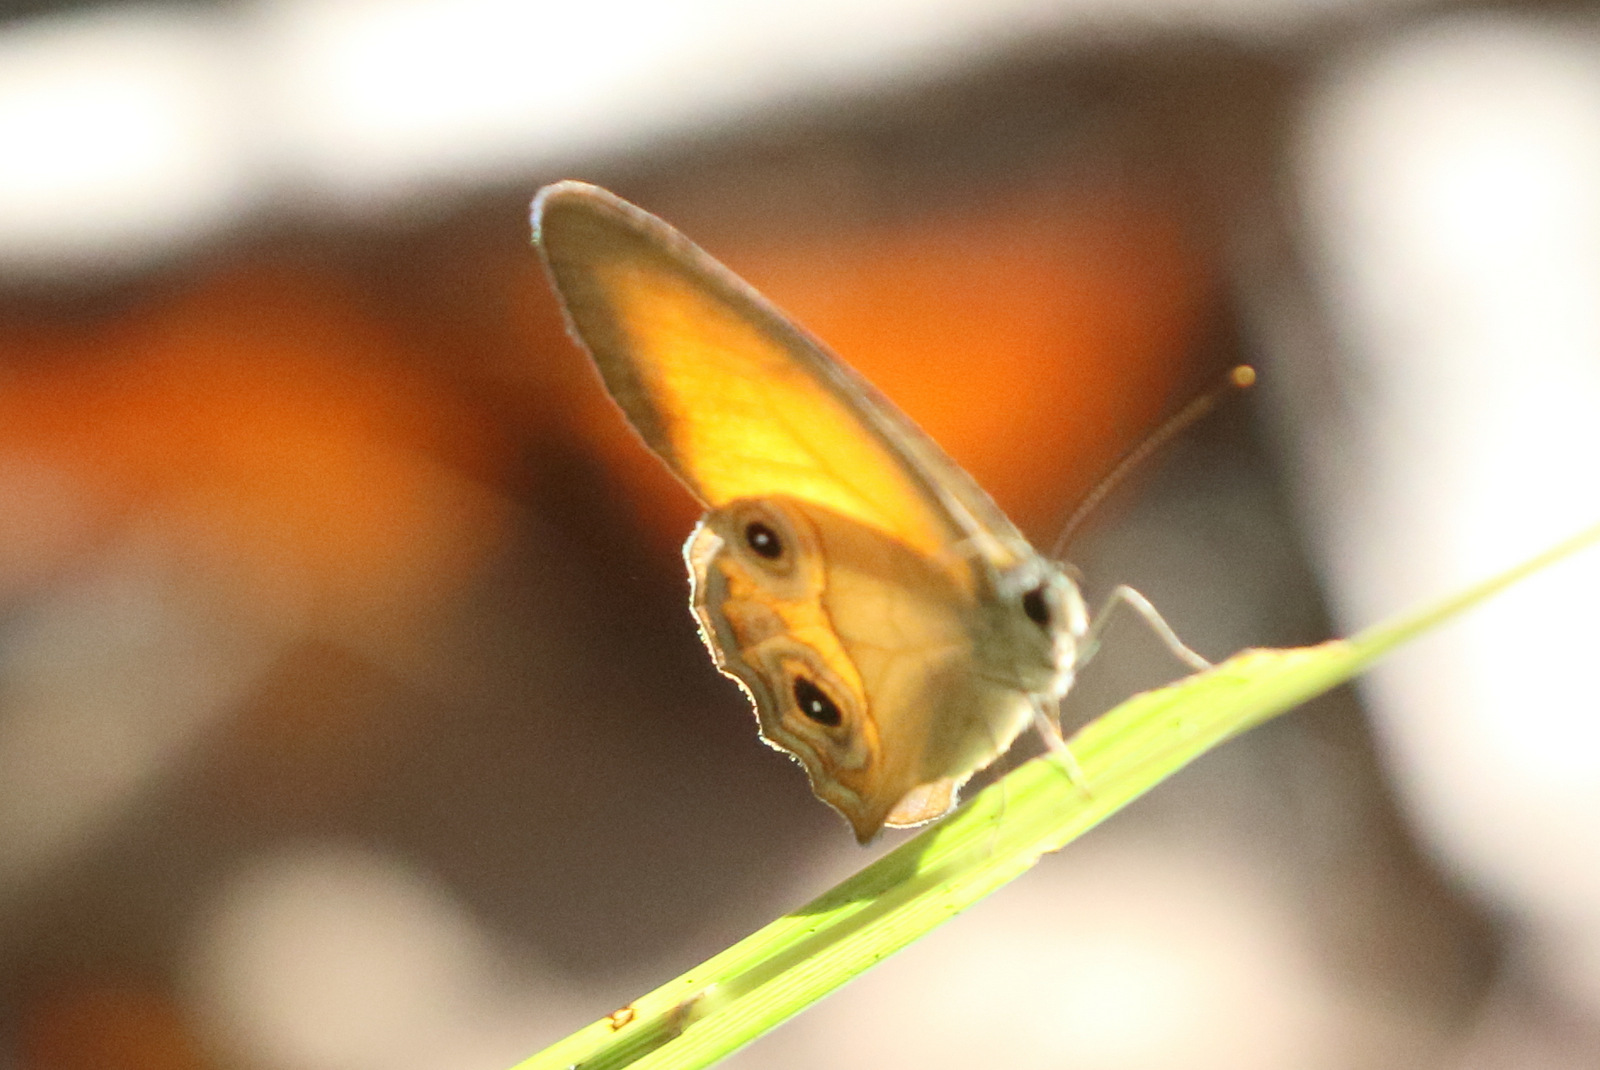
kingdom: Animalia
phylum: Arthropoda
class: Insecta
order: Lepidoptera
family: Nymphalidae
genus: Hypocysta
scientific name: Hypocysta adiante
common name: Orange ringlet
